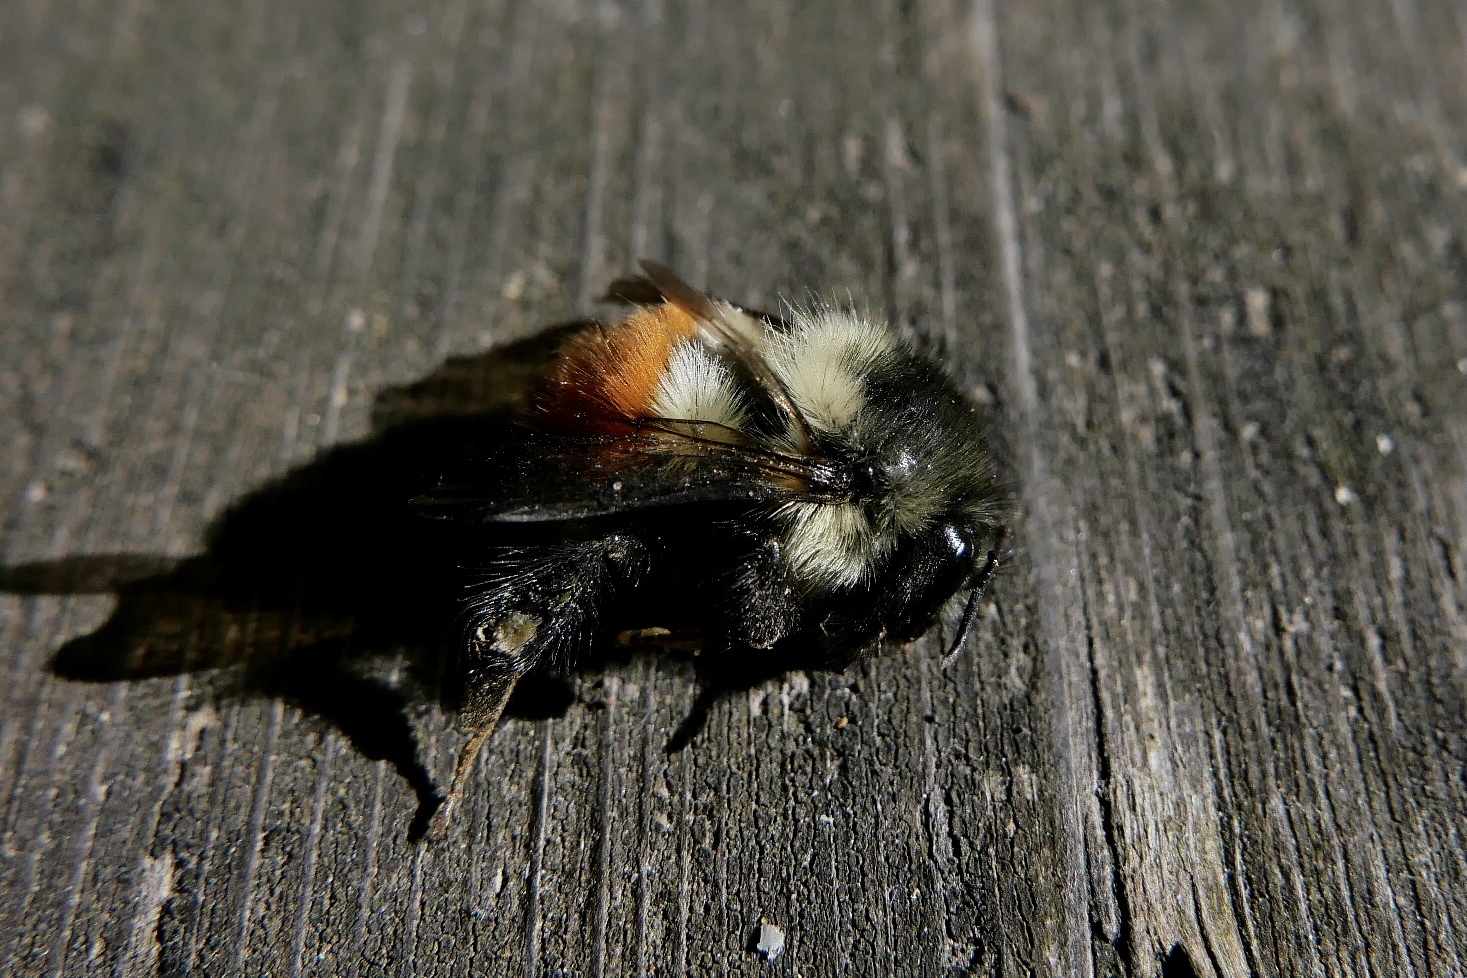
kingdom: Animalia
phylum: Arthropoda
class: Insecta
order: Hymenoptera
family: Apidae
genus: Bombus
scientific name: Bombus melanopygus
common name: Black tail bumble bee
